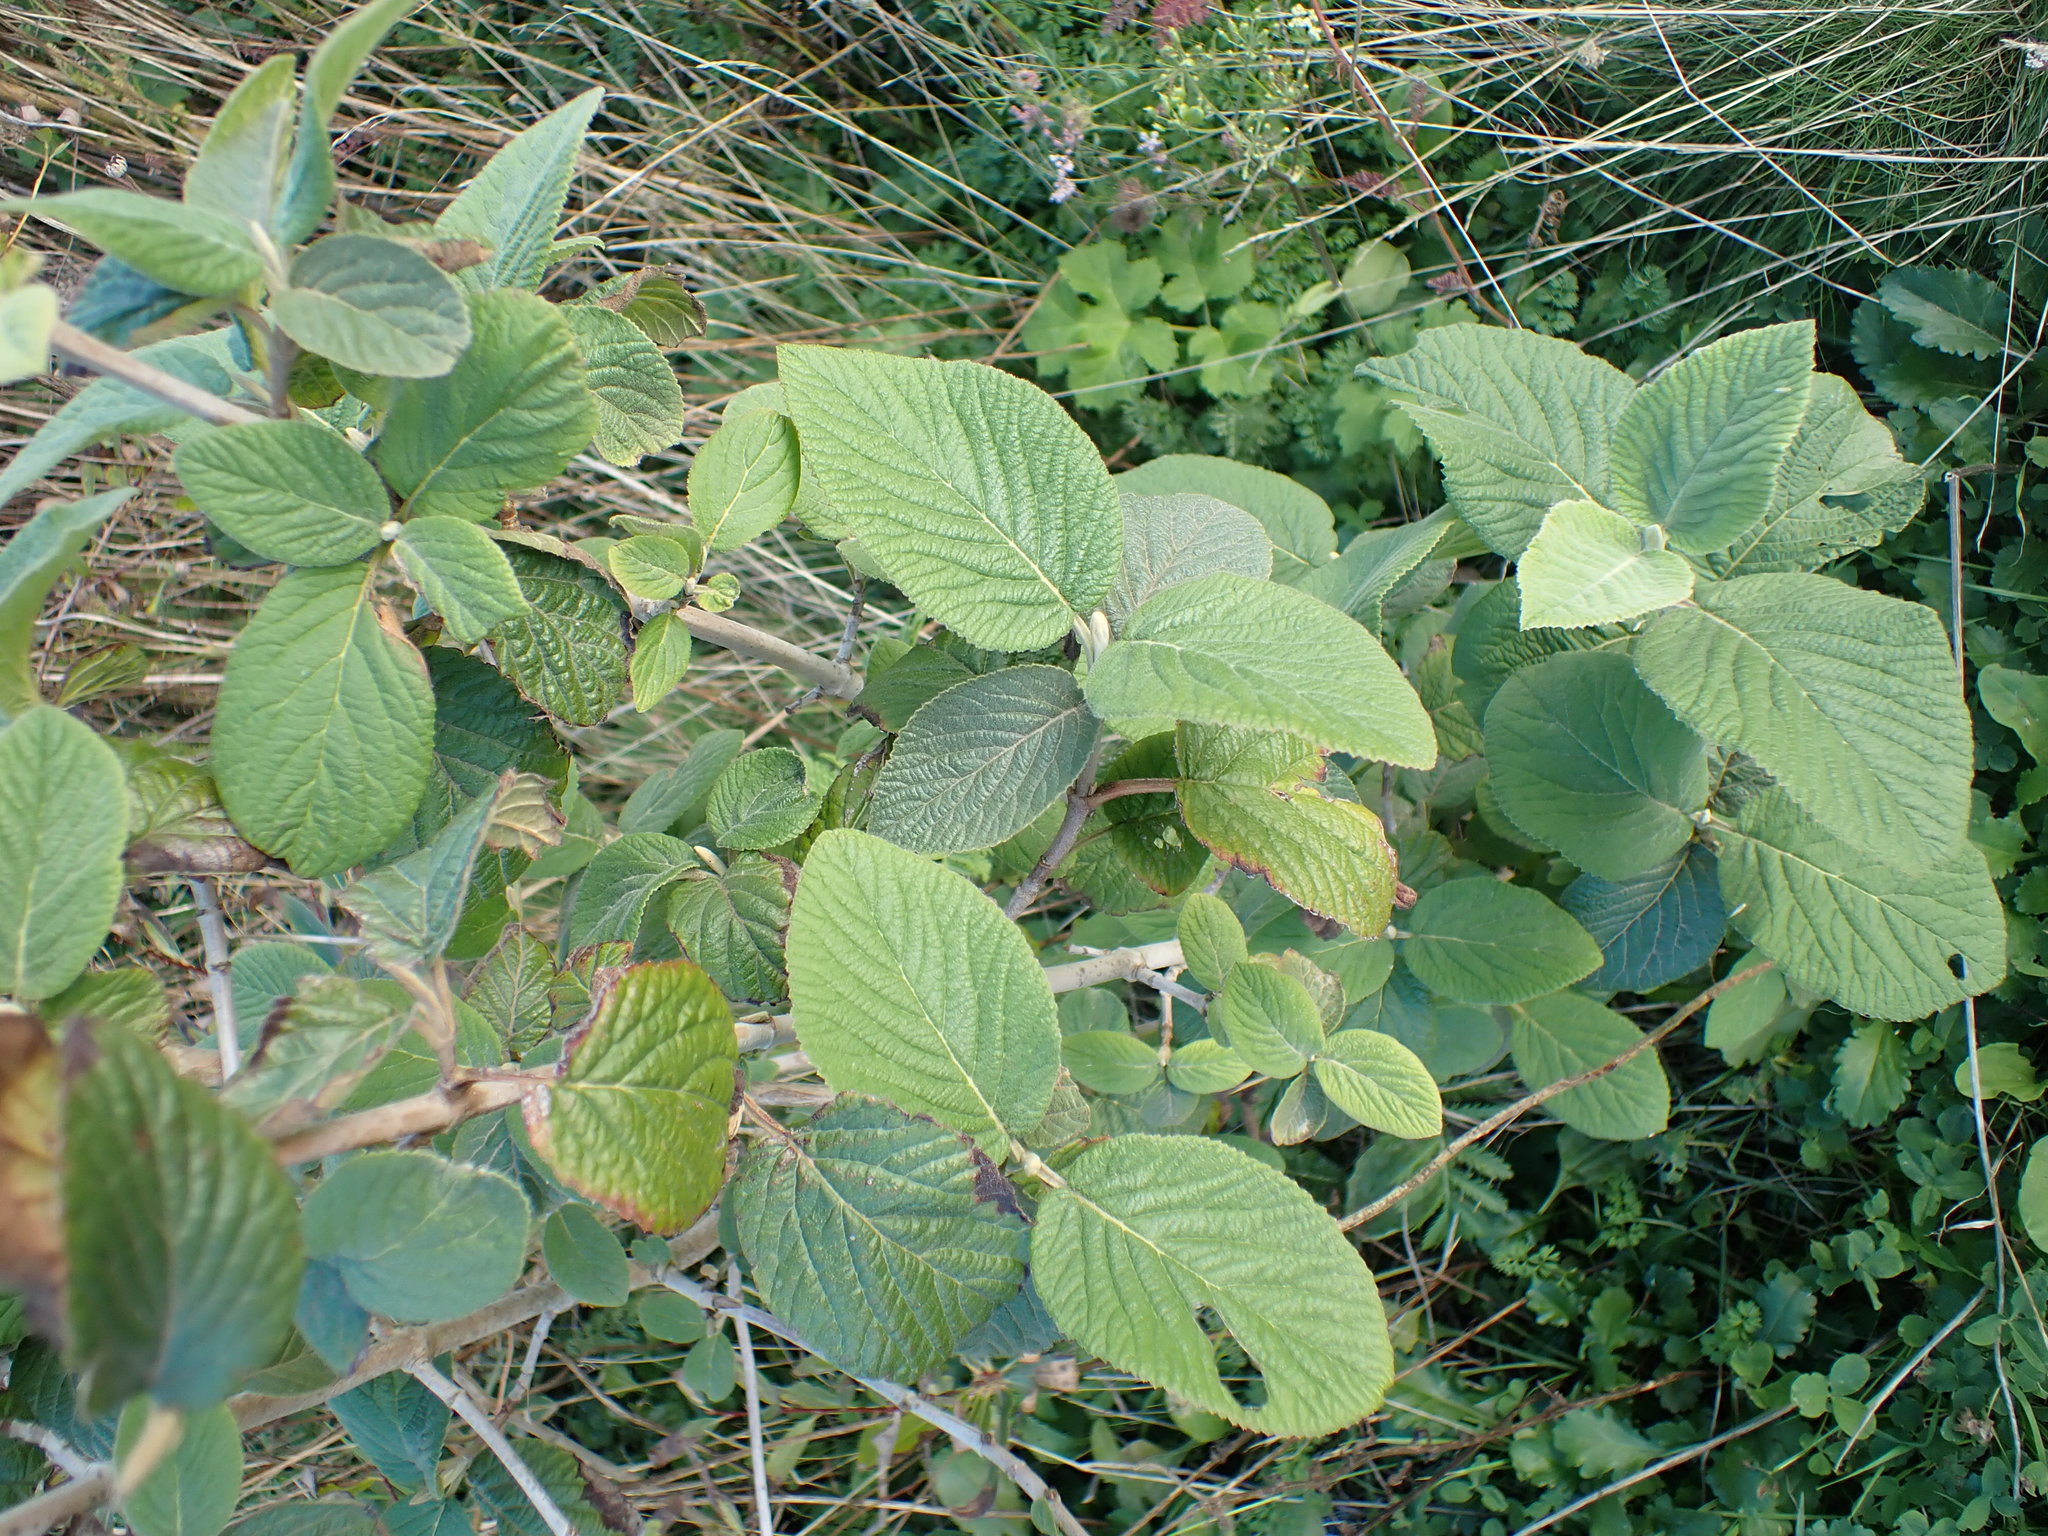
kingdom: Plantae
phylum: Tracheophyta
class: Magnoliopsida
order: Dipsacales
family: Viburnaceae
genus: Viburnum
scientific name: Viburnum lantana
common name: Wayfaring tree
